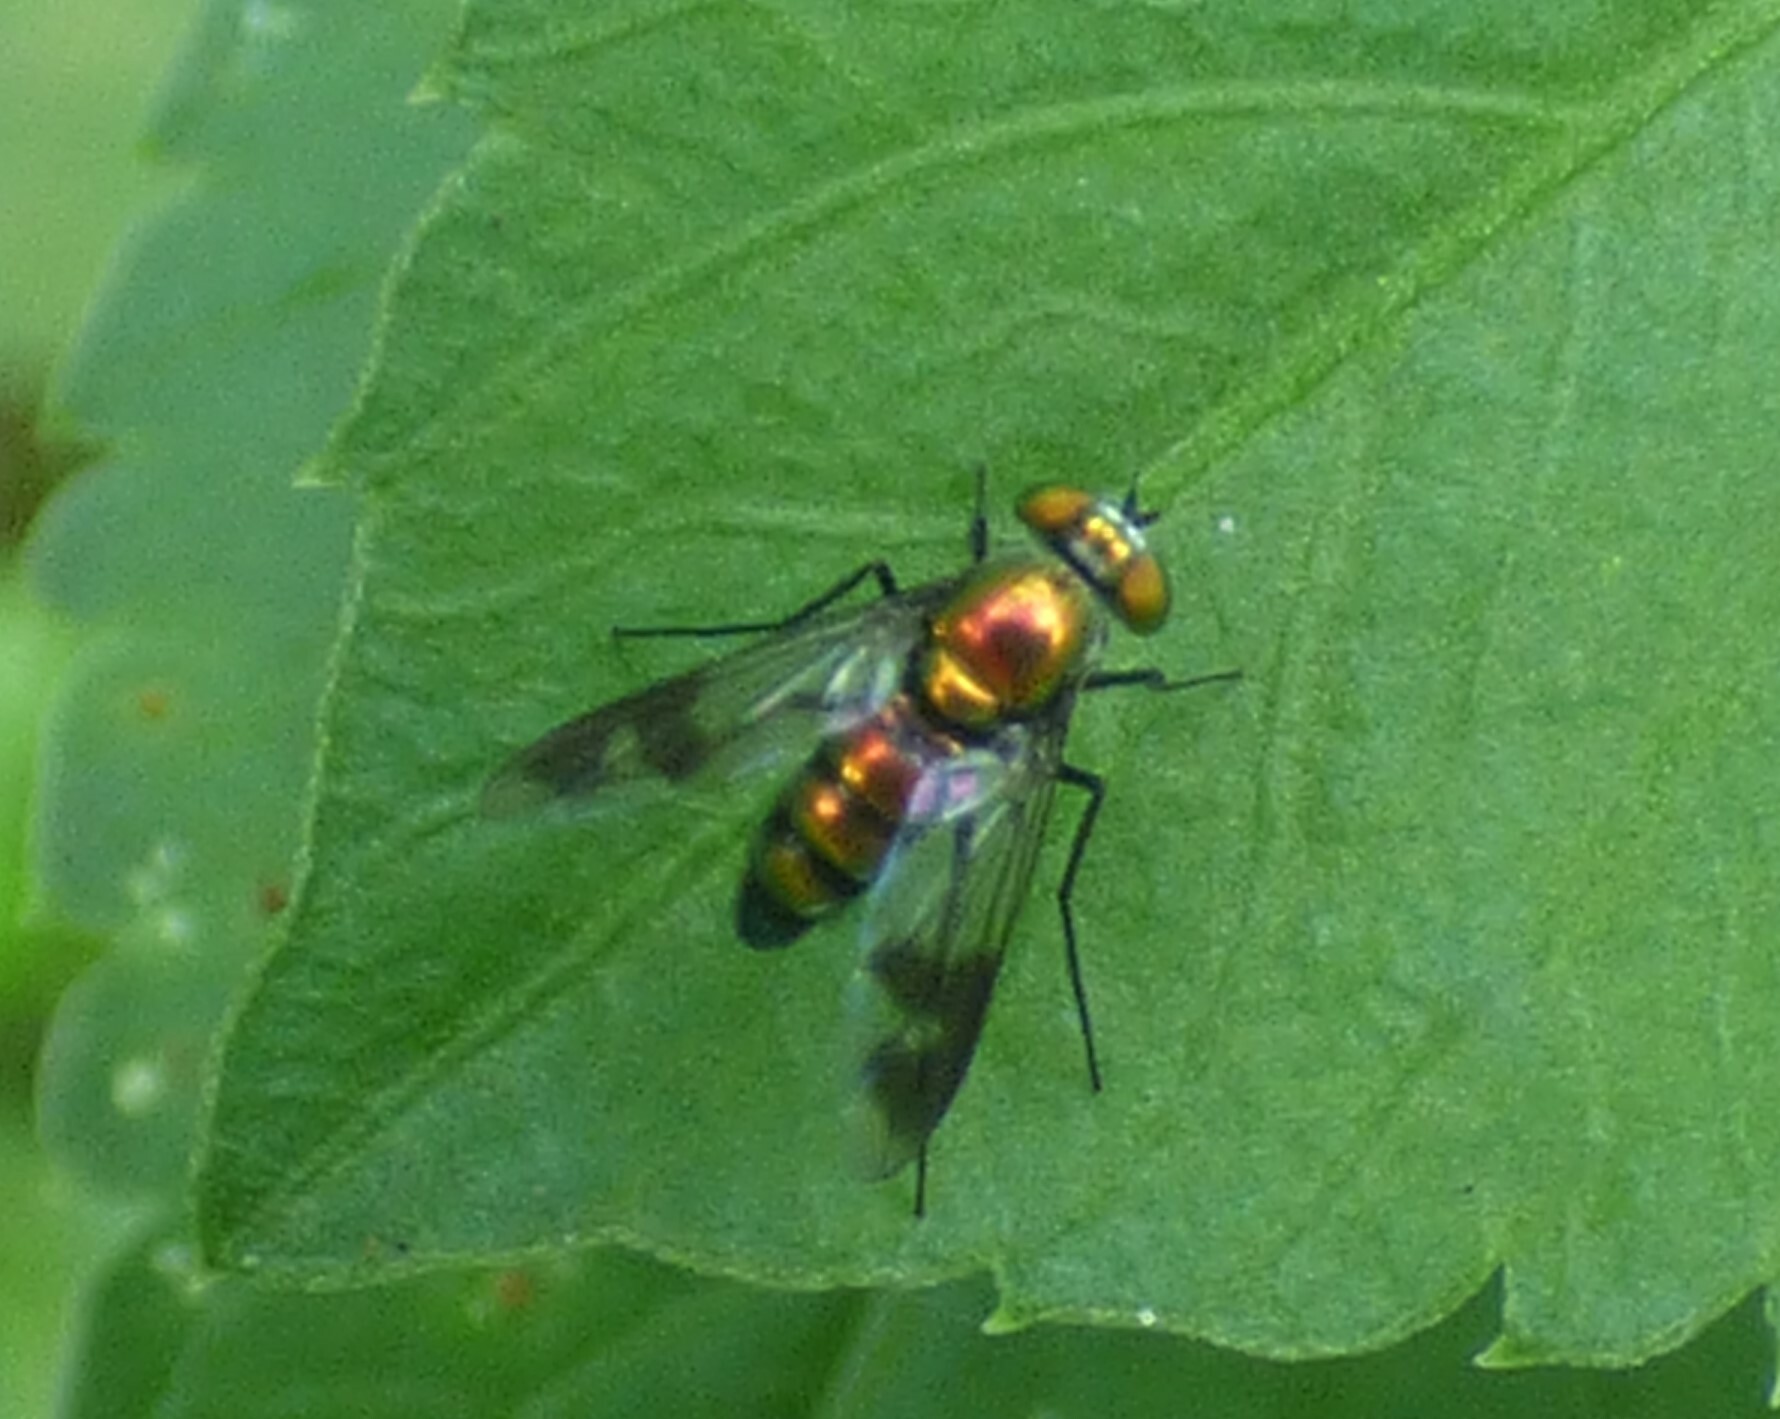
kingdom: Animalia
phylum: Arthropoda
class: Insecta
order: Diptera
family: Dolichopodidae
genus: Condylostylus
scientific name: Condylostylus patibulatus
